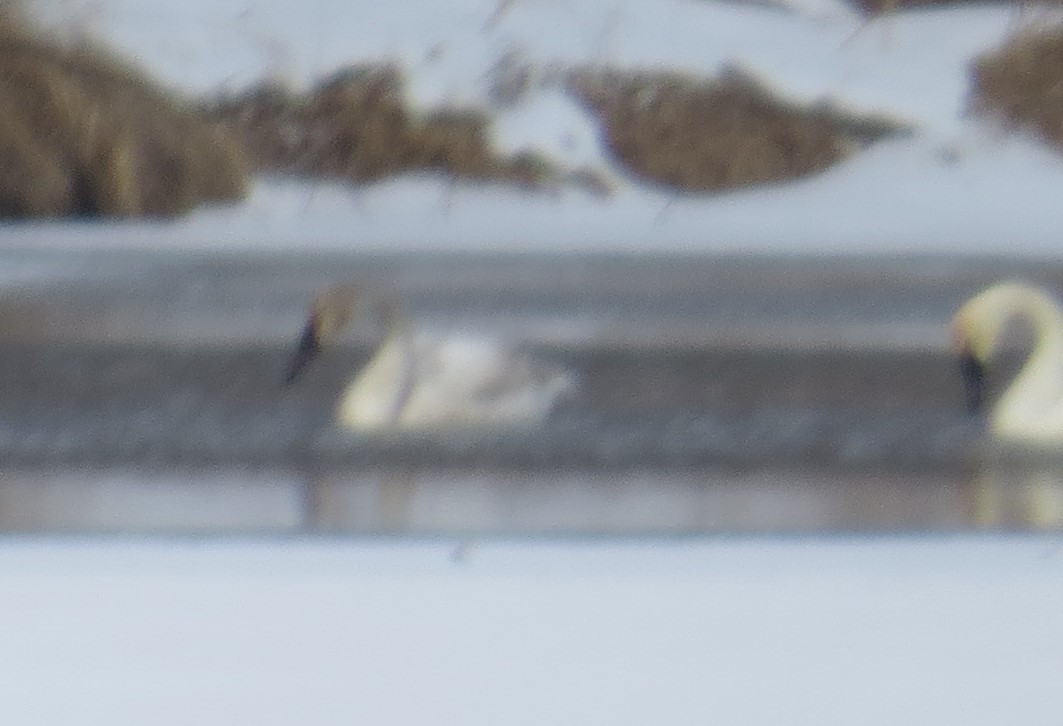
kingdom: Animalia
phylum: Chordata
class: Aves
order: Anseriformes
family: Anatidae
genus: Cygnus
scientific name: Cygnus buccinator
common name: Trumpeter swan
